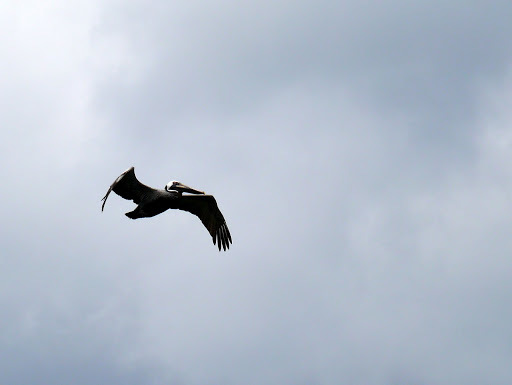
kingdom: Animalia
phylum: Chordata
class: Aves
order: Pelecaniformes
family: Pelecanidae
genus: Pelecanus
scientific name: Pelecanus occidentalis
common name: Brown pelican
